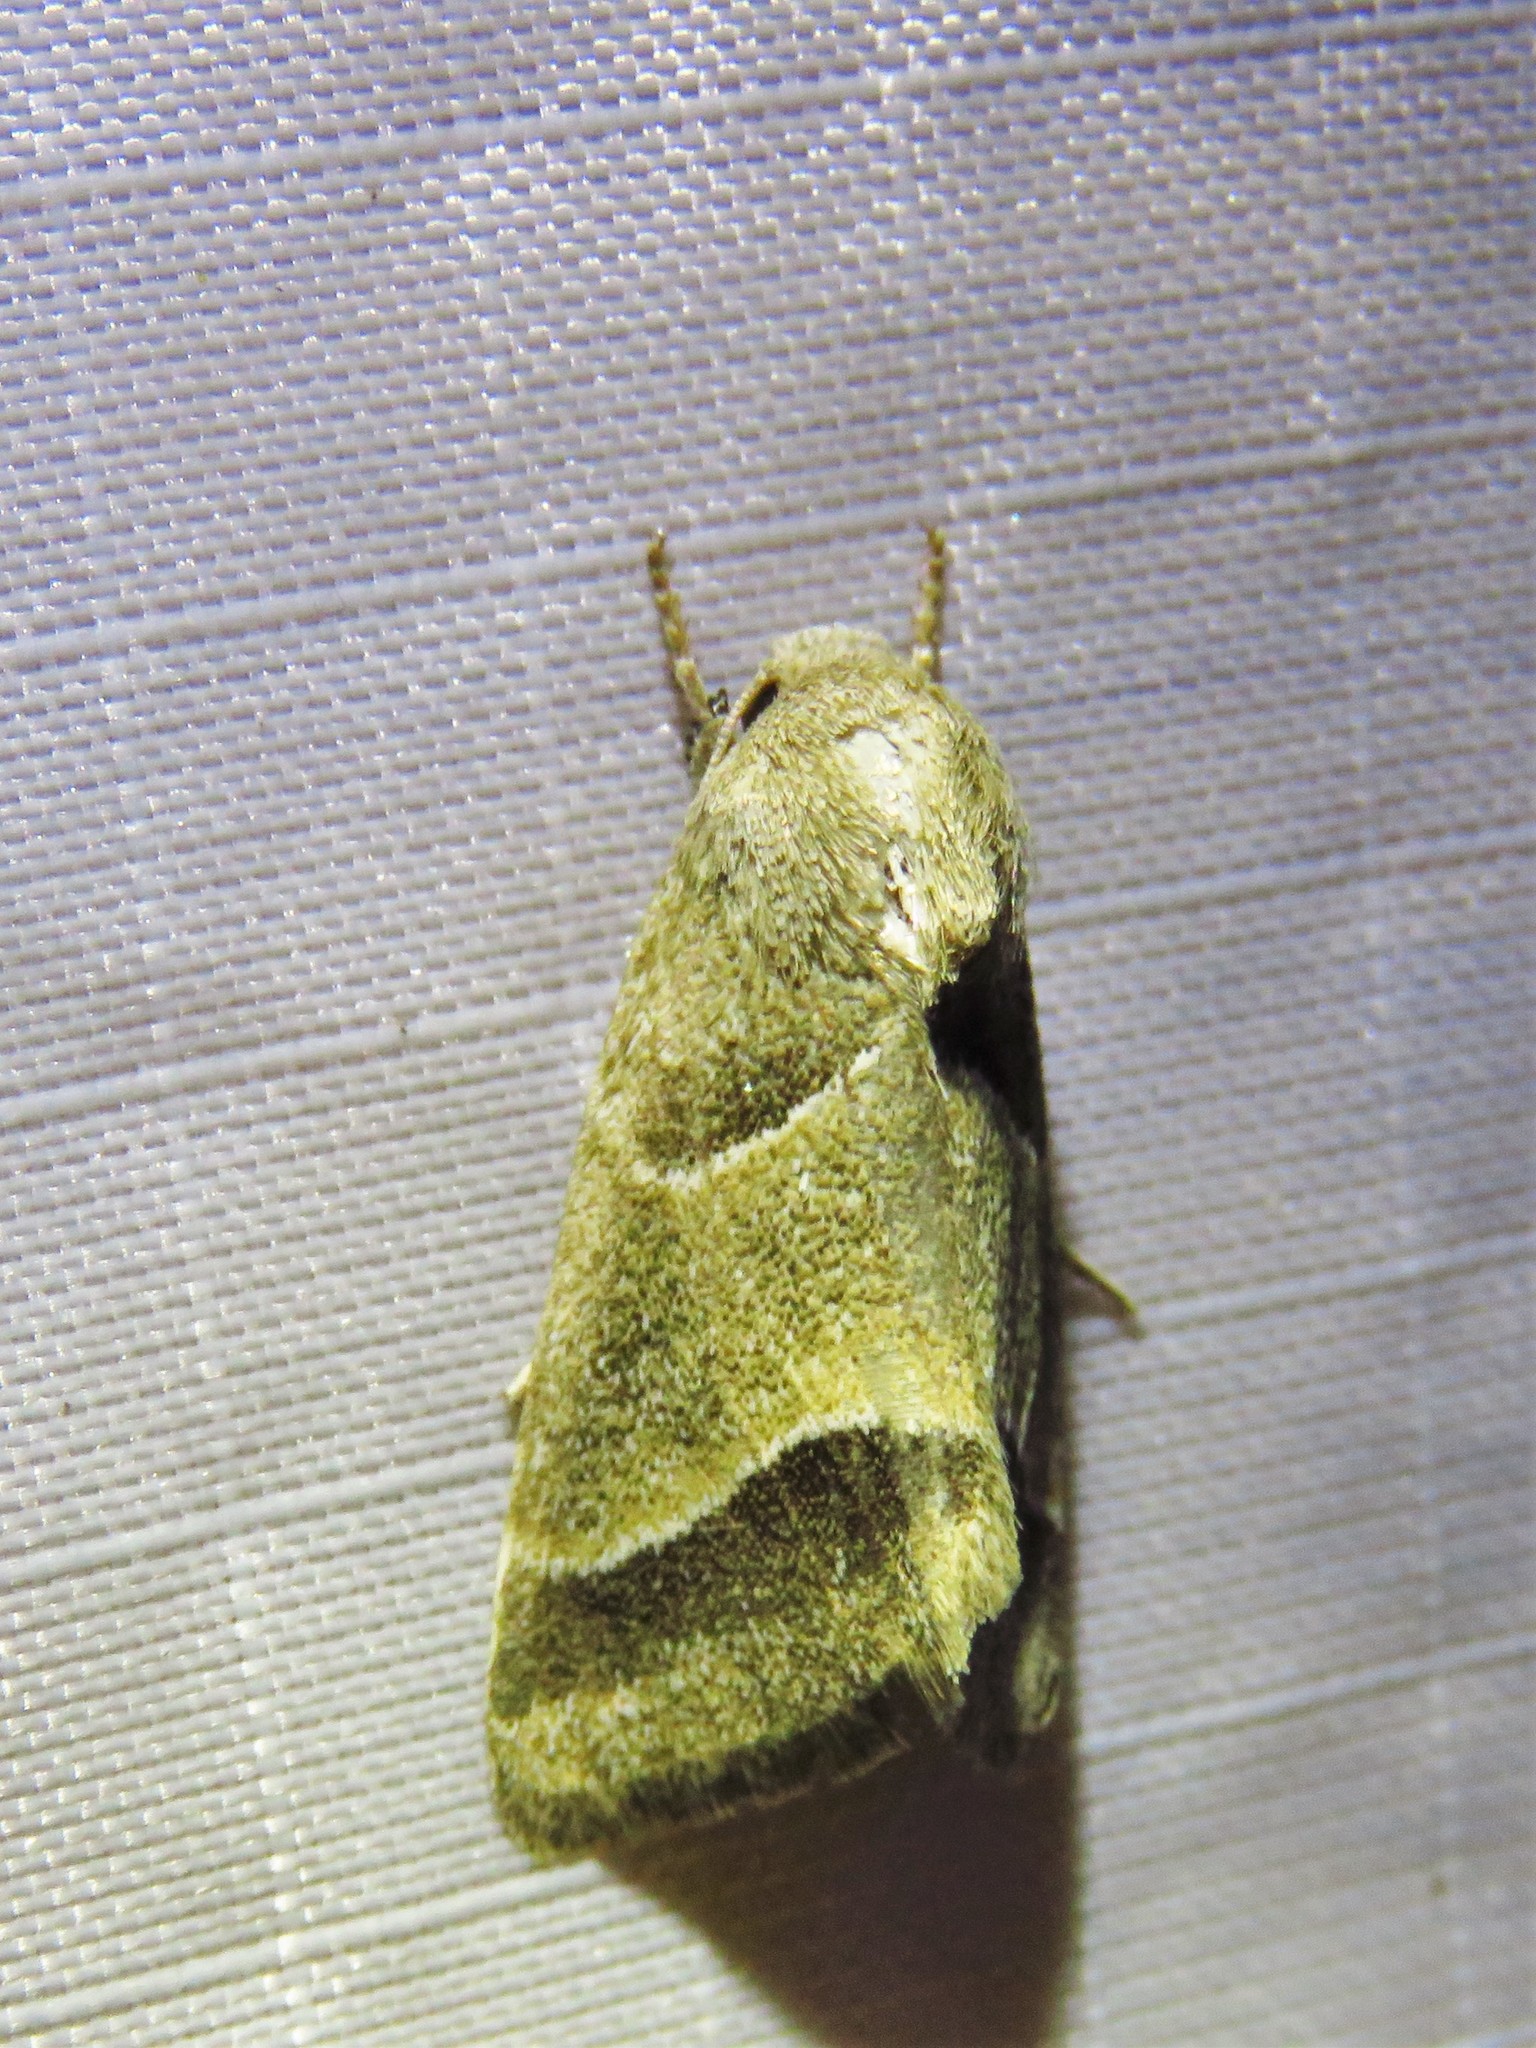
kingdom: Animalia
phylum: Arthropoda
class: Insecta
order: Lepidoptera
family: Noctuidae
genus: Schinia
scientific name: Schinia gracilenta
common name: Slender flower moth
